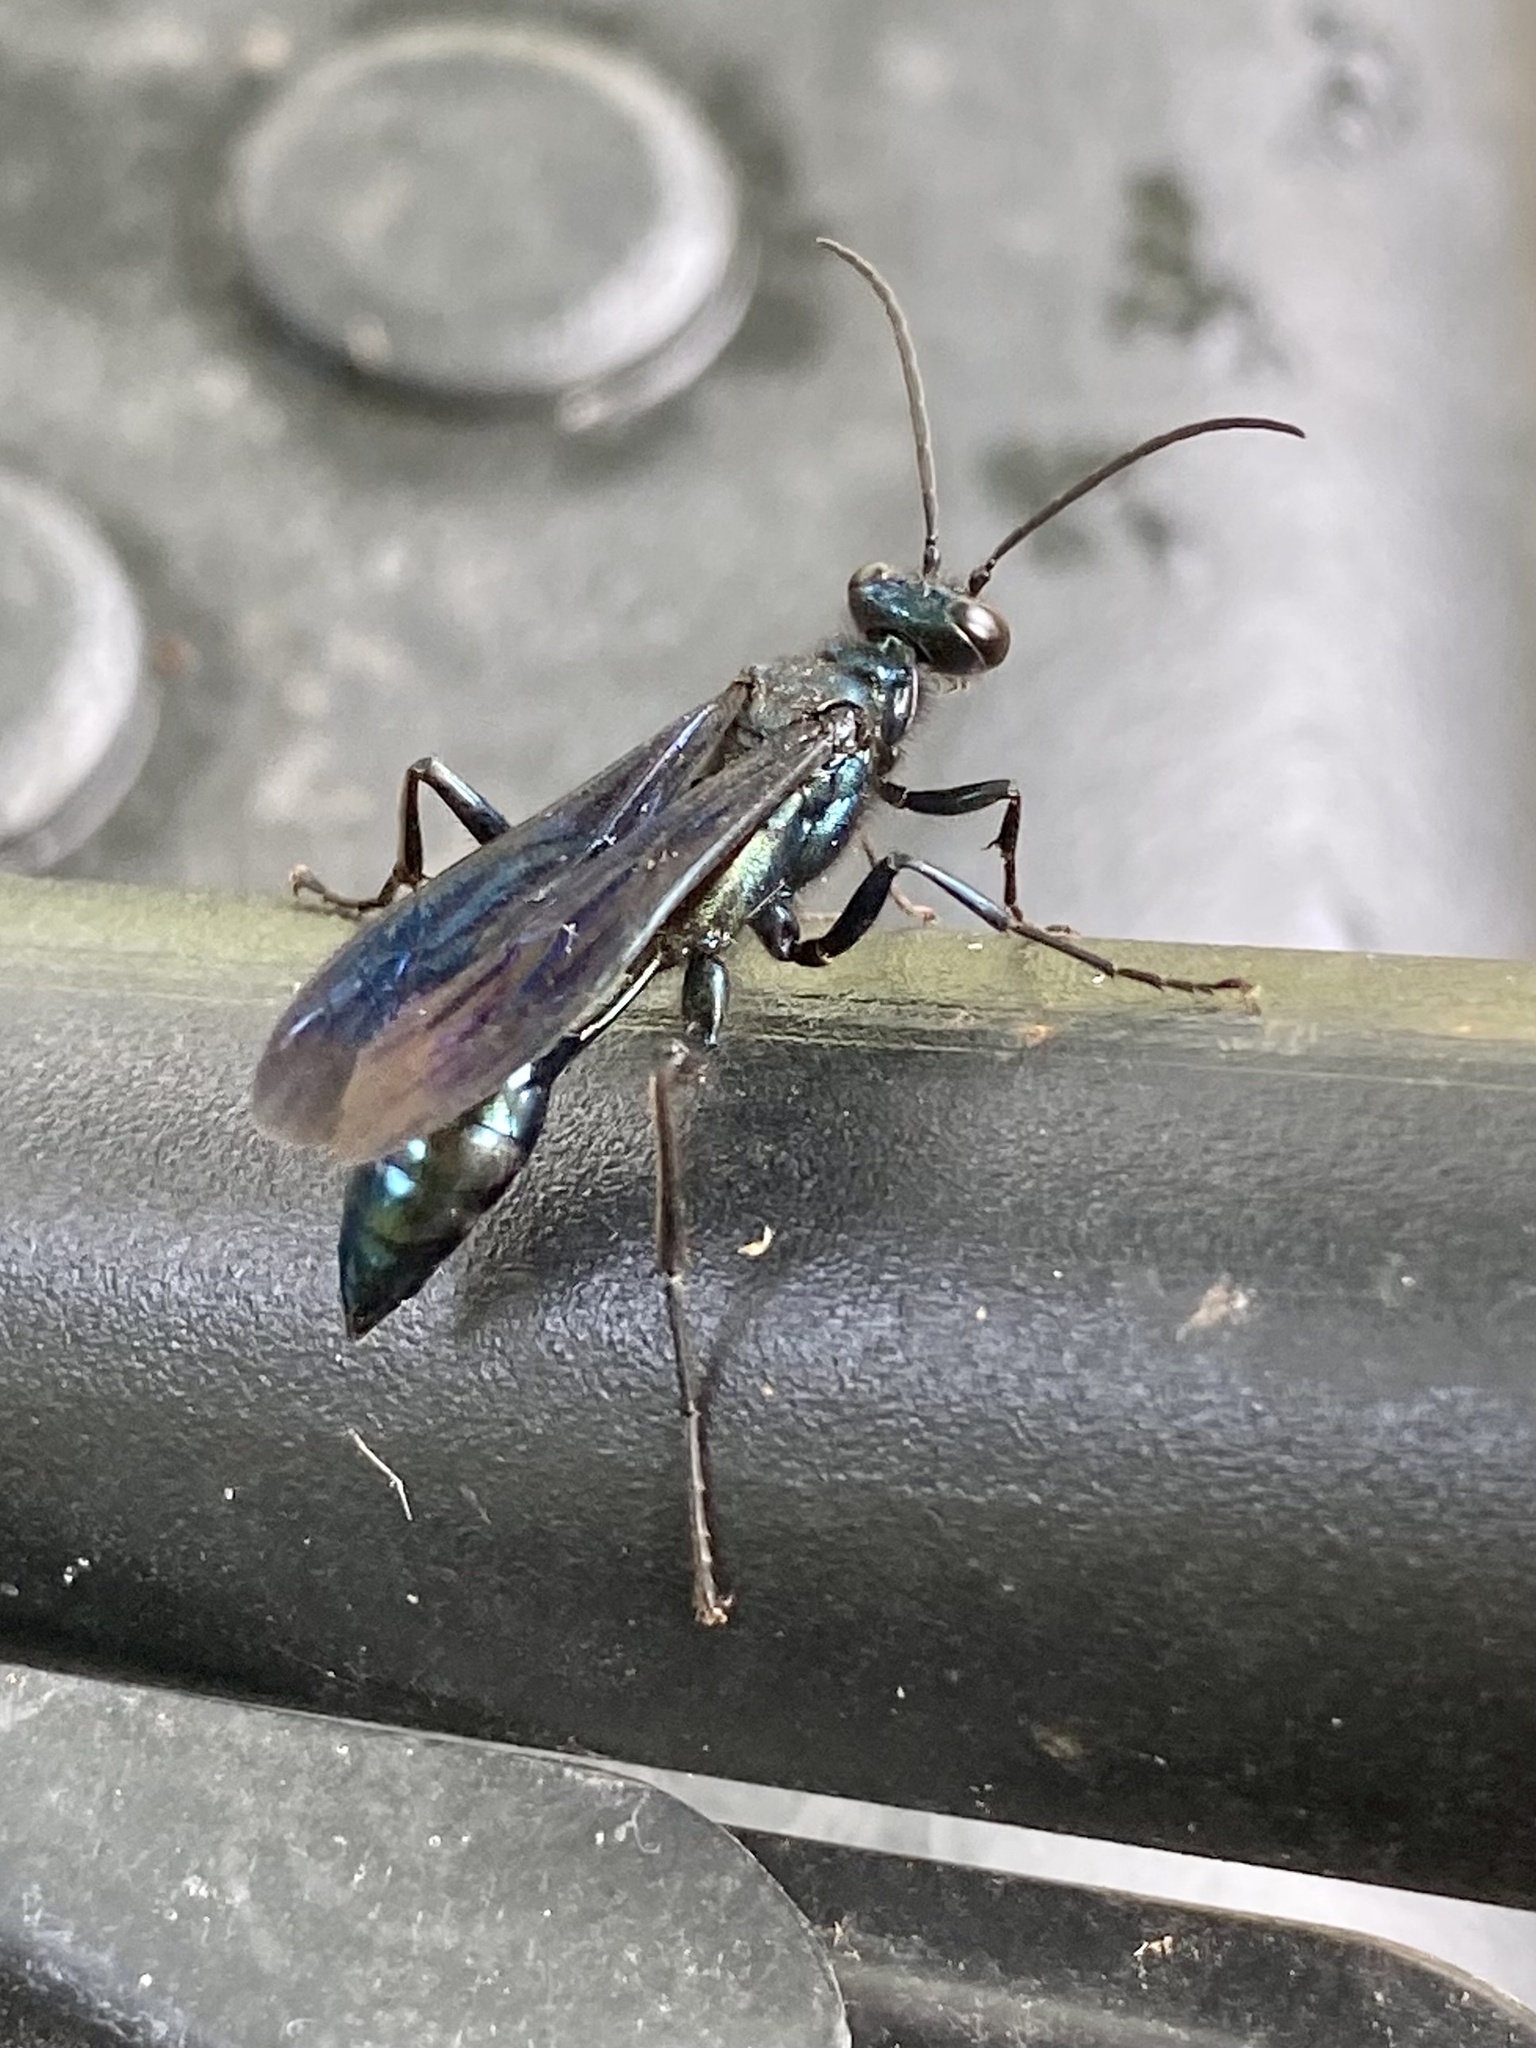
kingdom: Animalia
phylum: Arthropoda
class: Insecta
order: Hymenoptera
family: Sphecidae
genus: Chalybion
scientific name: Chalybion californicum
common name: Mud dauber
